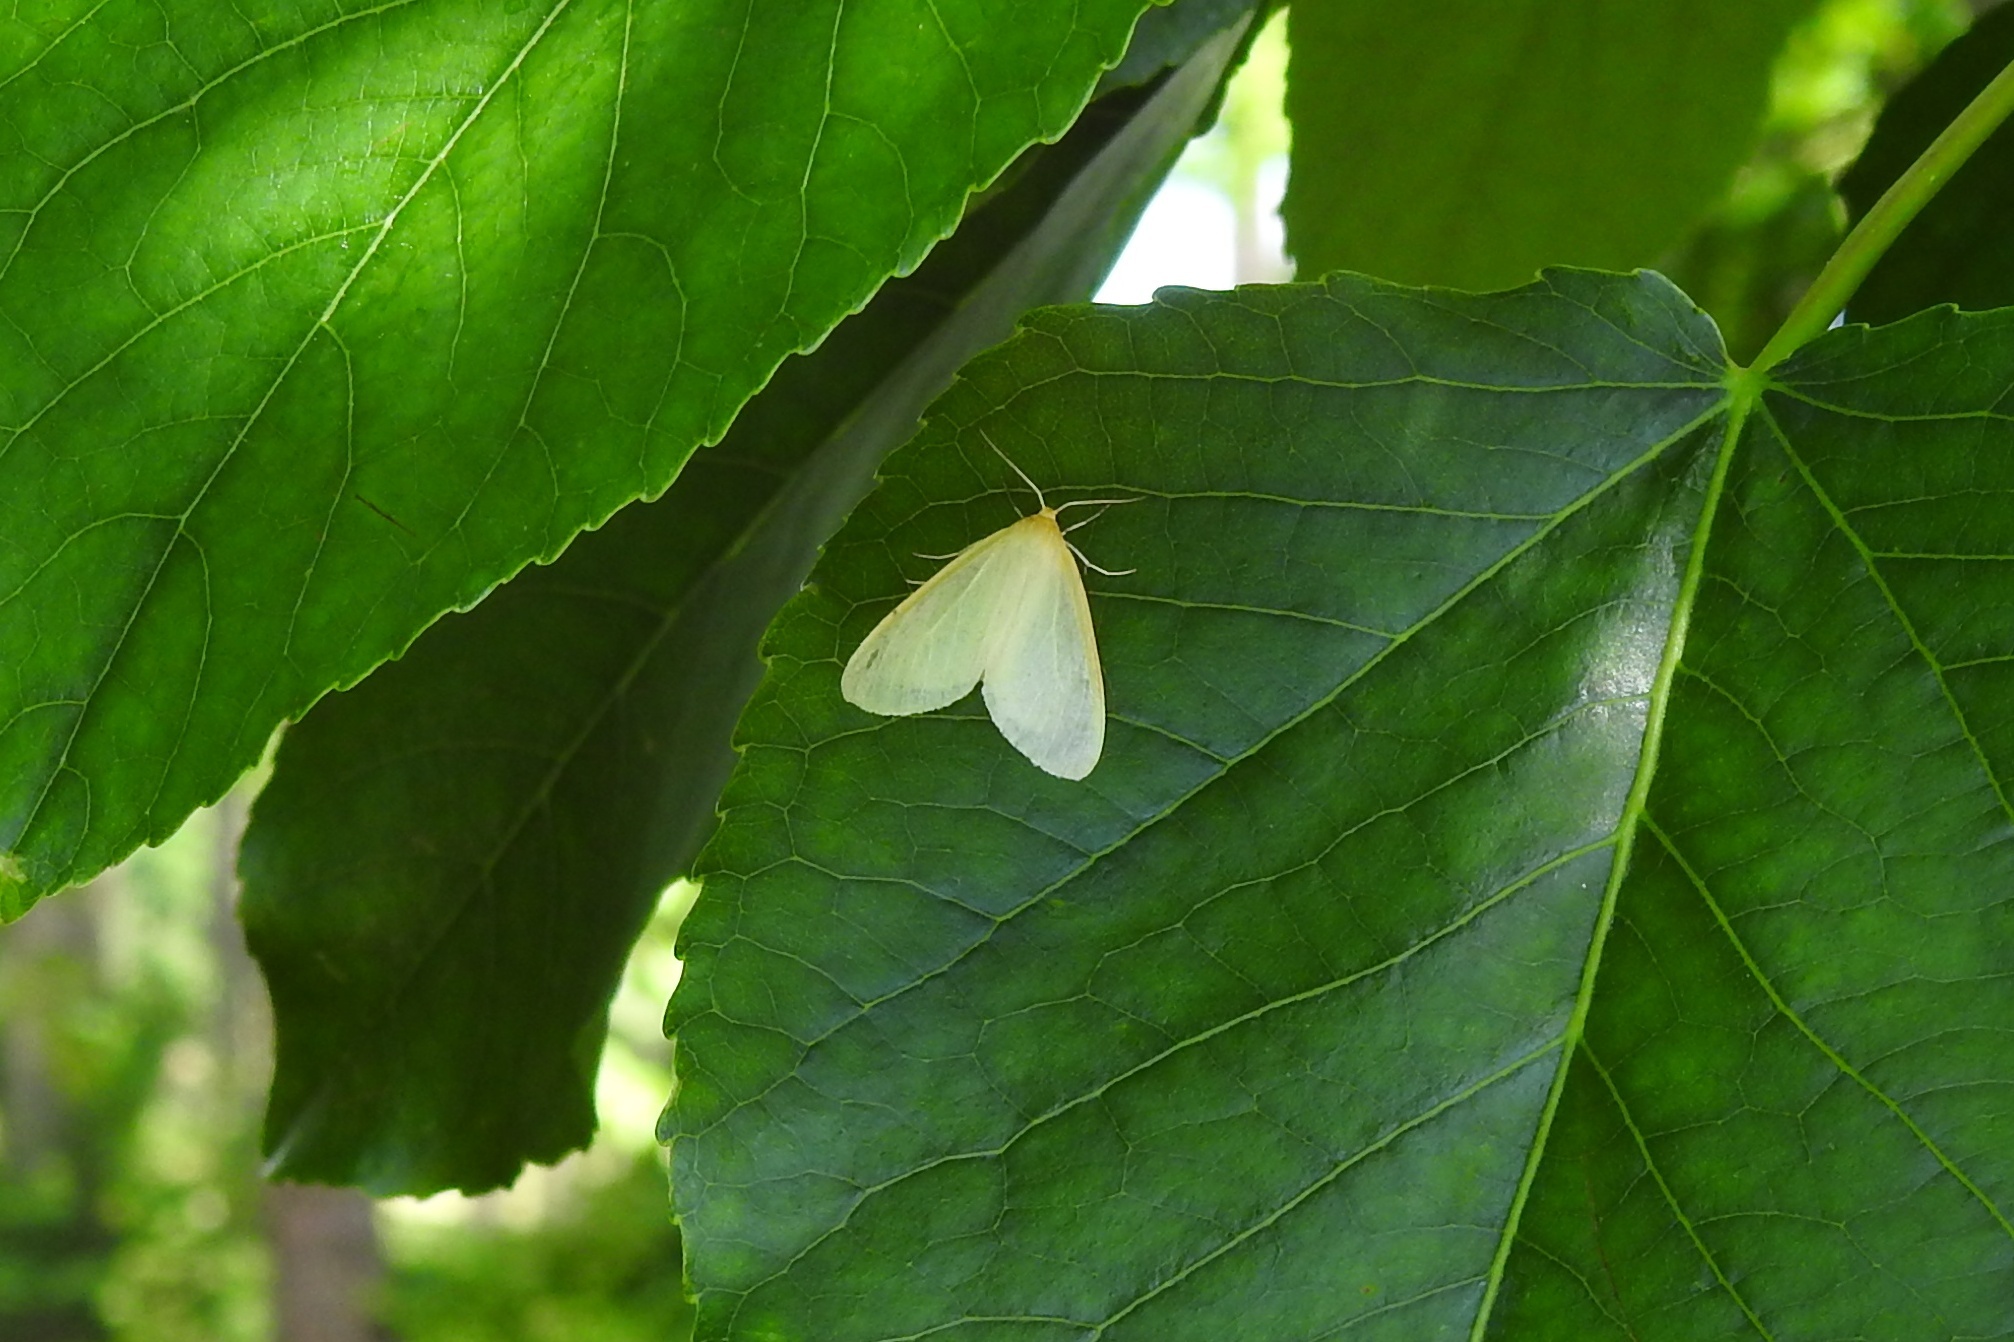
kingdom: Animalia
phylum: Arthropoda
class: Insecta
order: Lepidoptera
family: Erebidae
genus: Cycnia
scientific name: Cycnia tenera
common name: Delicate cycnia moth
